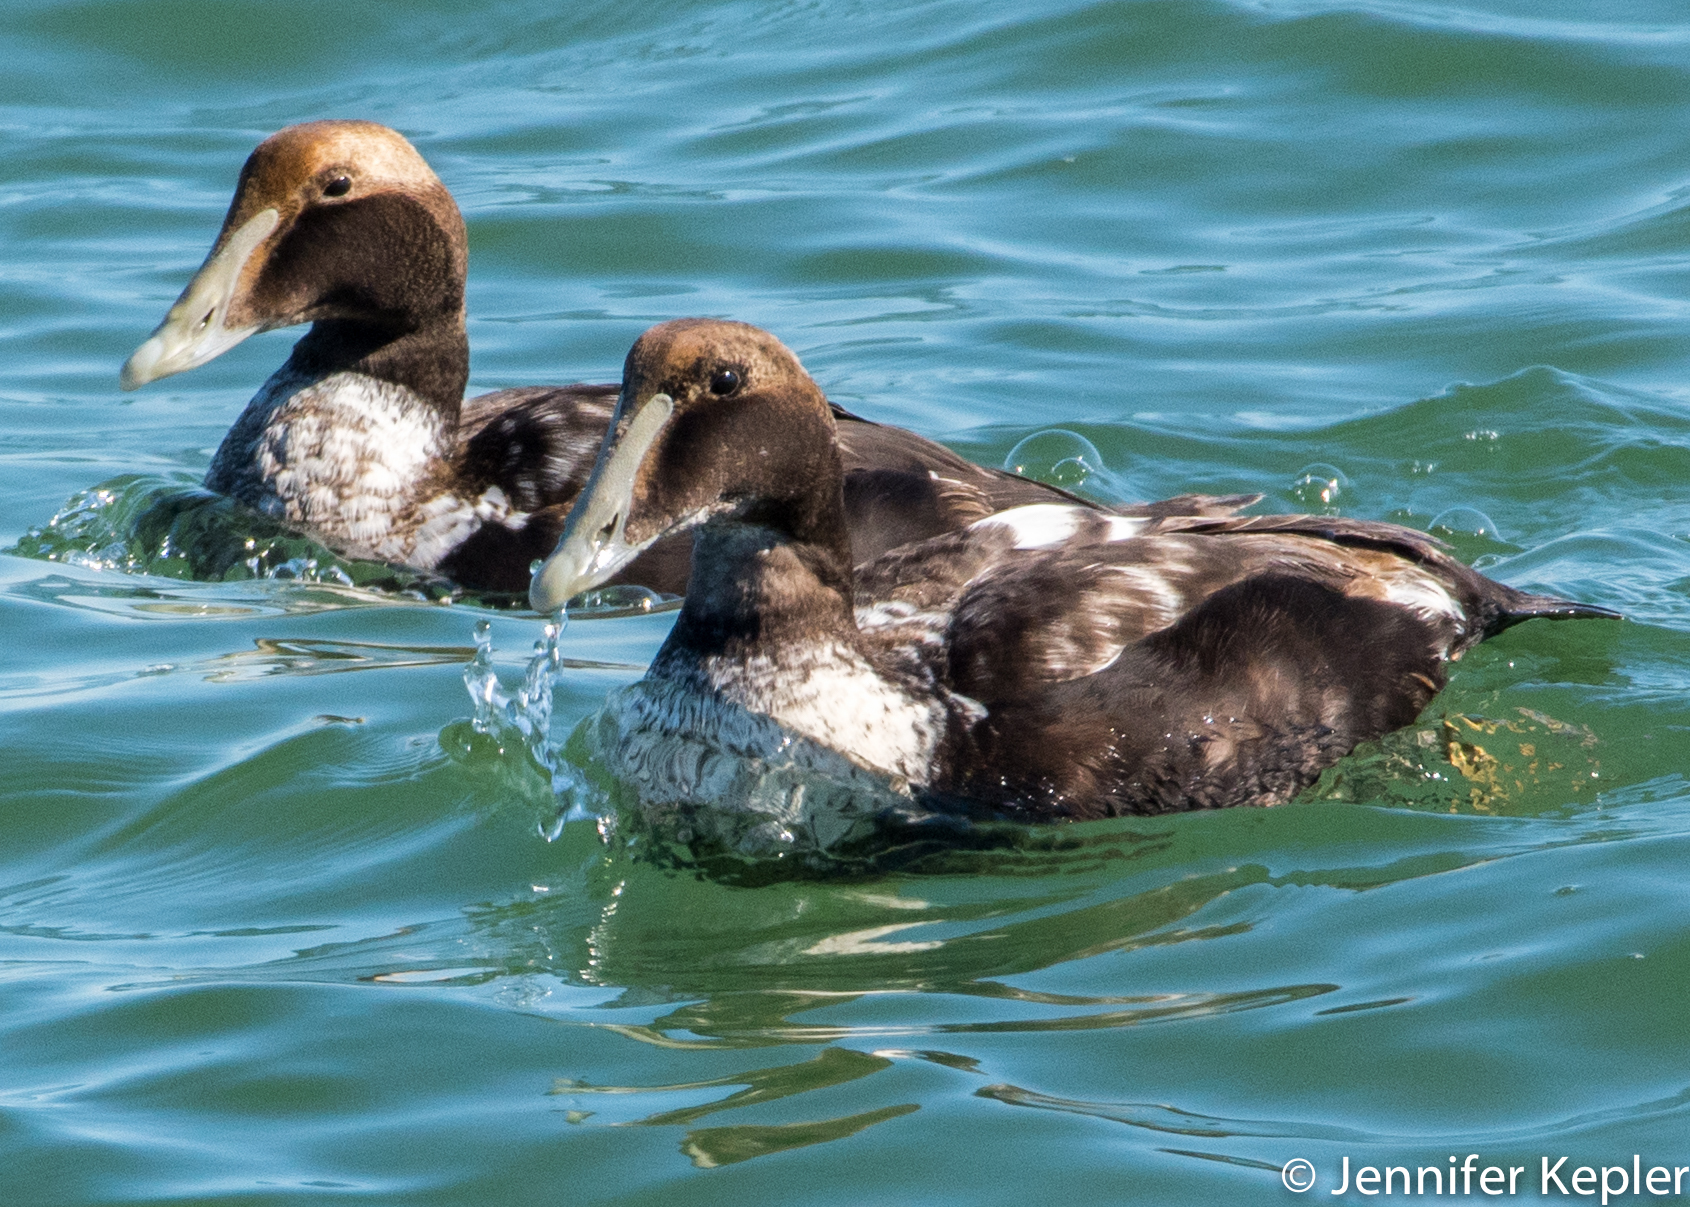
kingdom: Animalia
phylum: Chordata
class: Aves
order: Anseriformes
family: Anatidae
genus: Somateria
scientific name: Somateria mollissima
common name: Common eider
